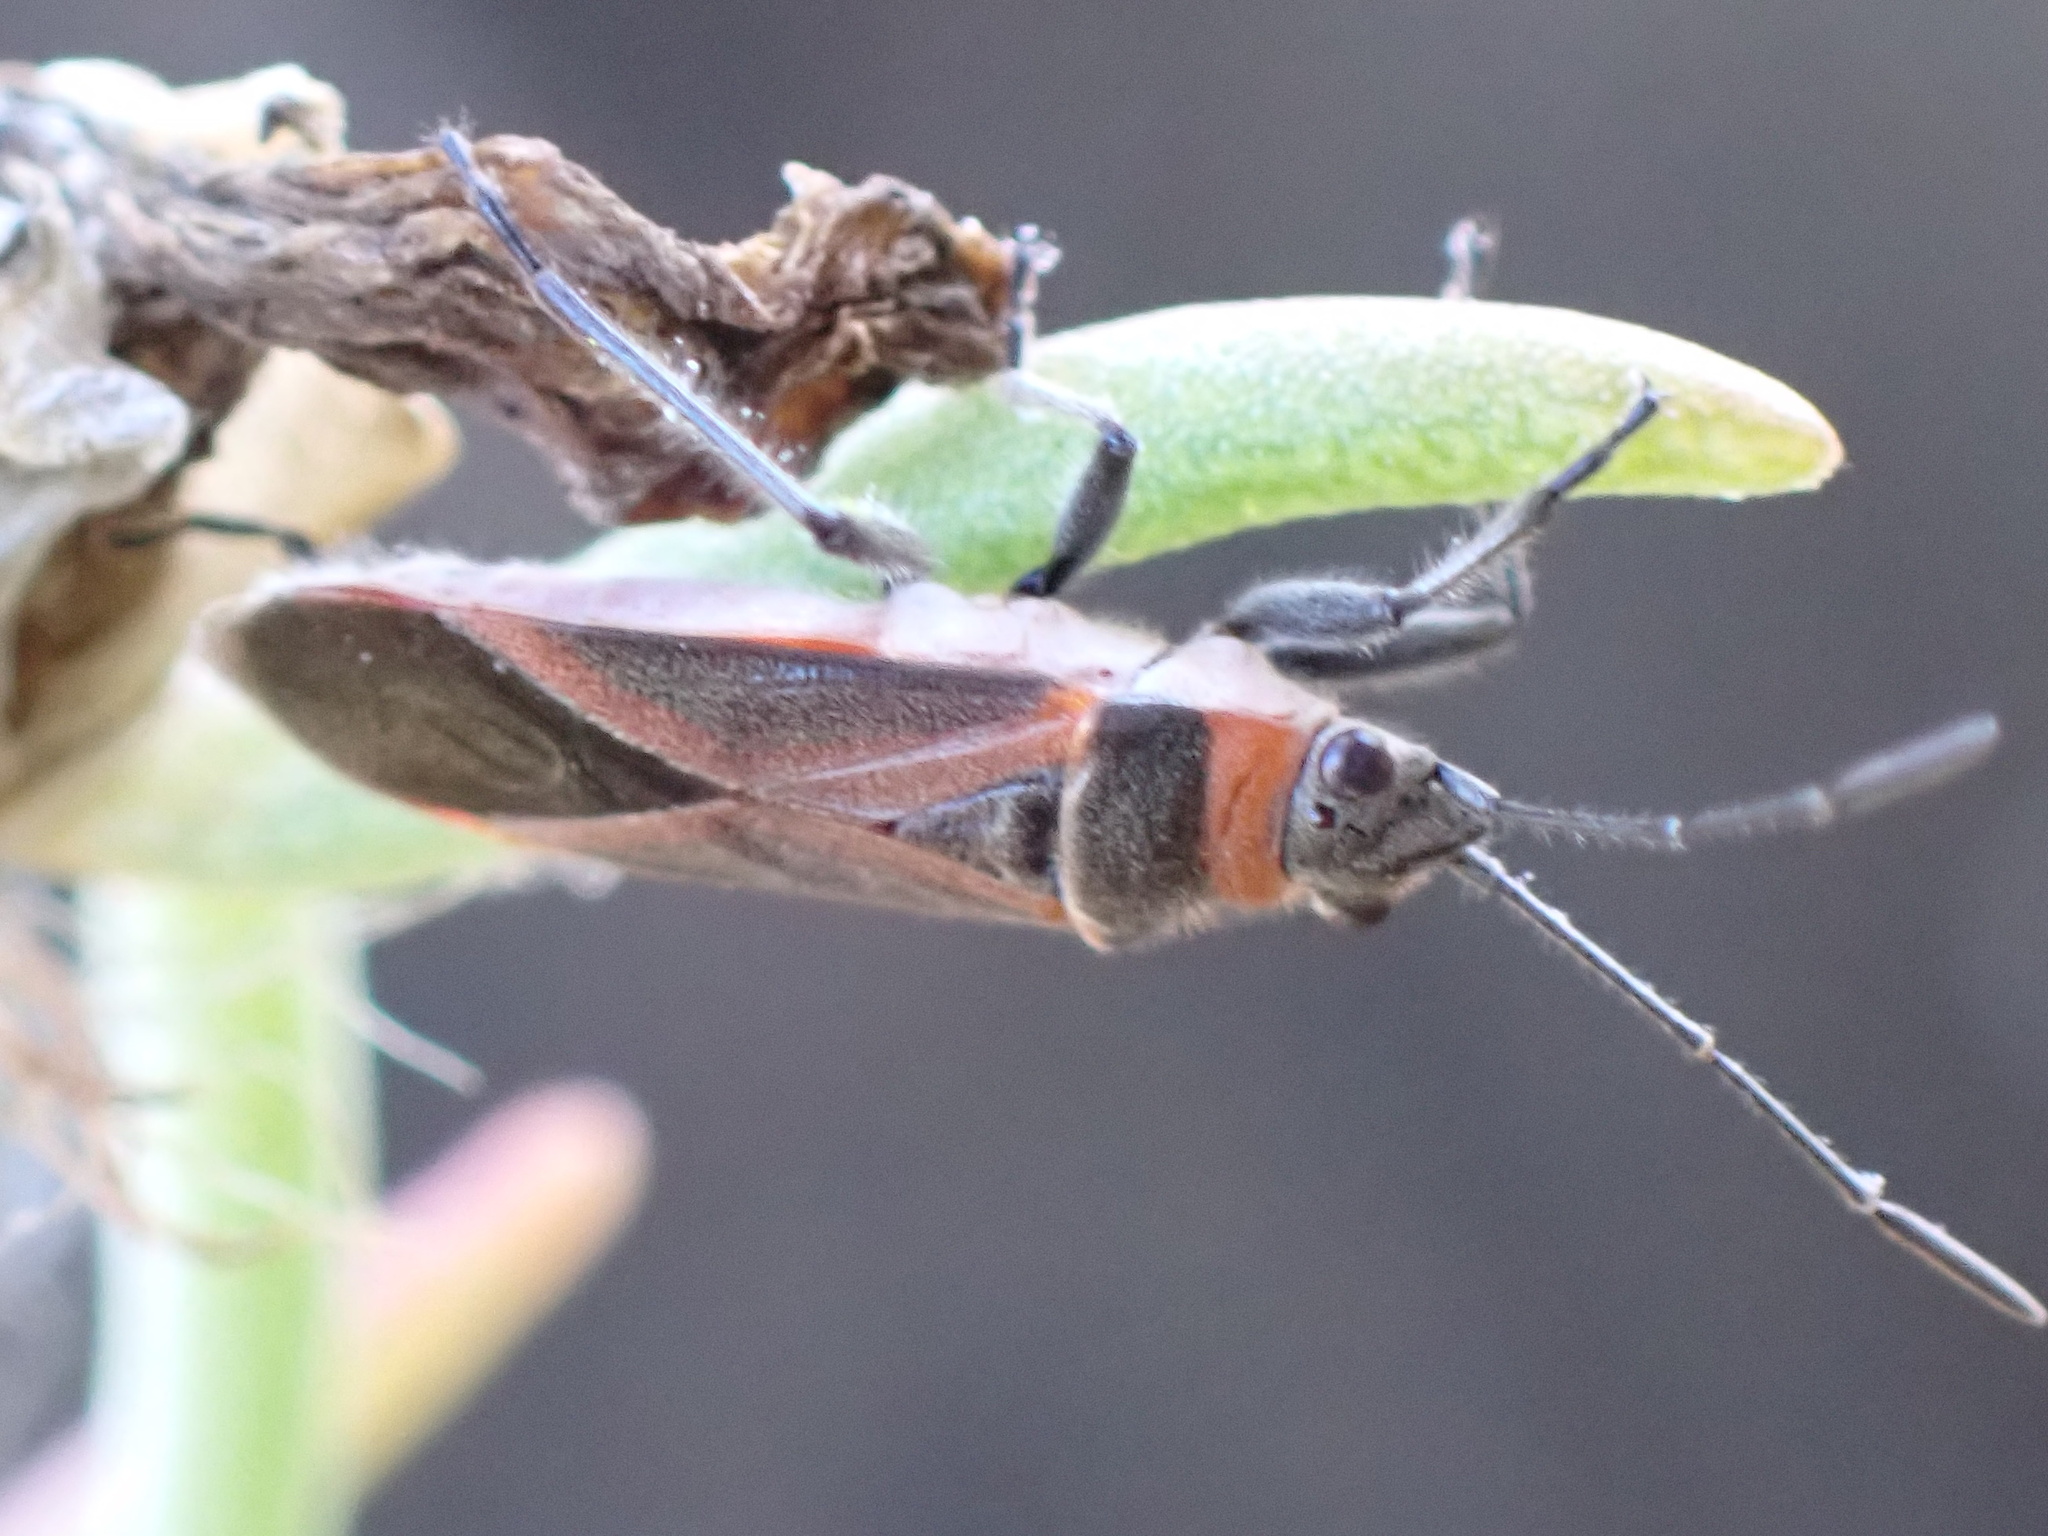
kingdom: Animalia
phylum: Arthropoda
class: Insecta
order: Hemiptera
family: Lygaeidae
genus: Arocatus
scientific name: Arocatus rusticus
